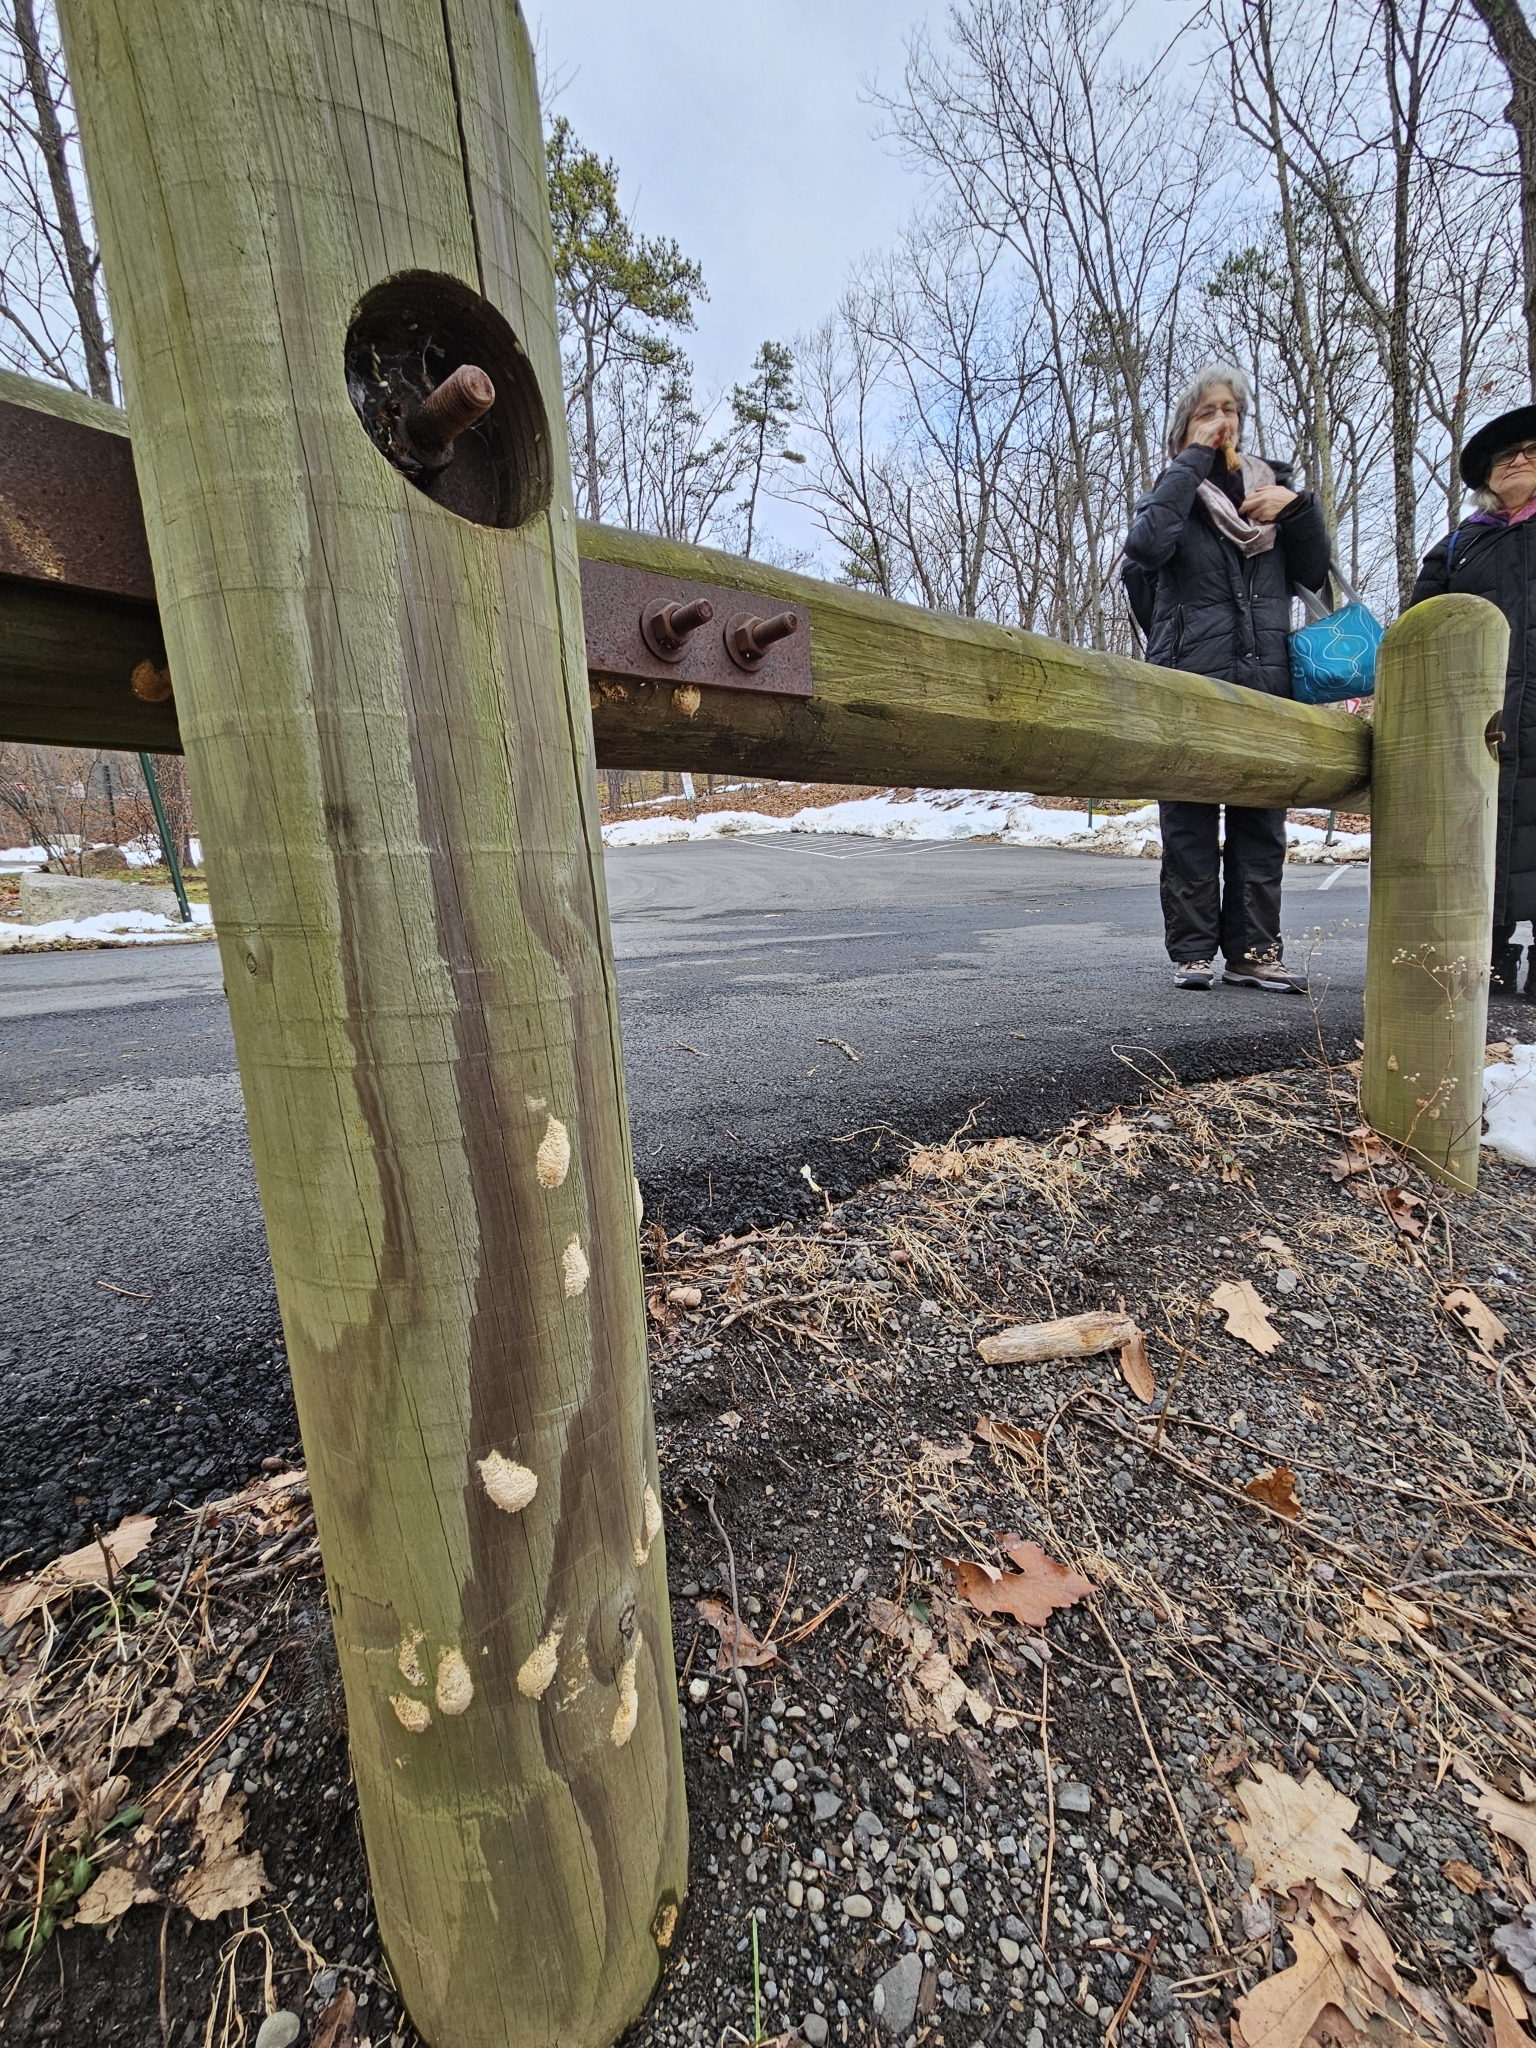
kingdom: Animalia
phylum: Arthropoda
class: Insecta
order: Lepidoptera
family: Erebidae
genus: Lymantria
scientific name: Lymantria dispar
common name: Gypsy moth
